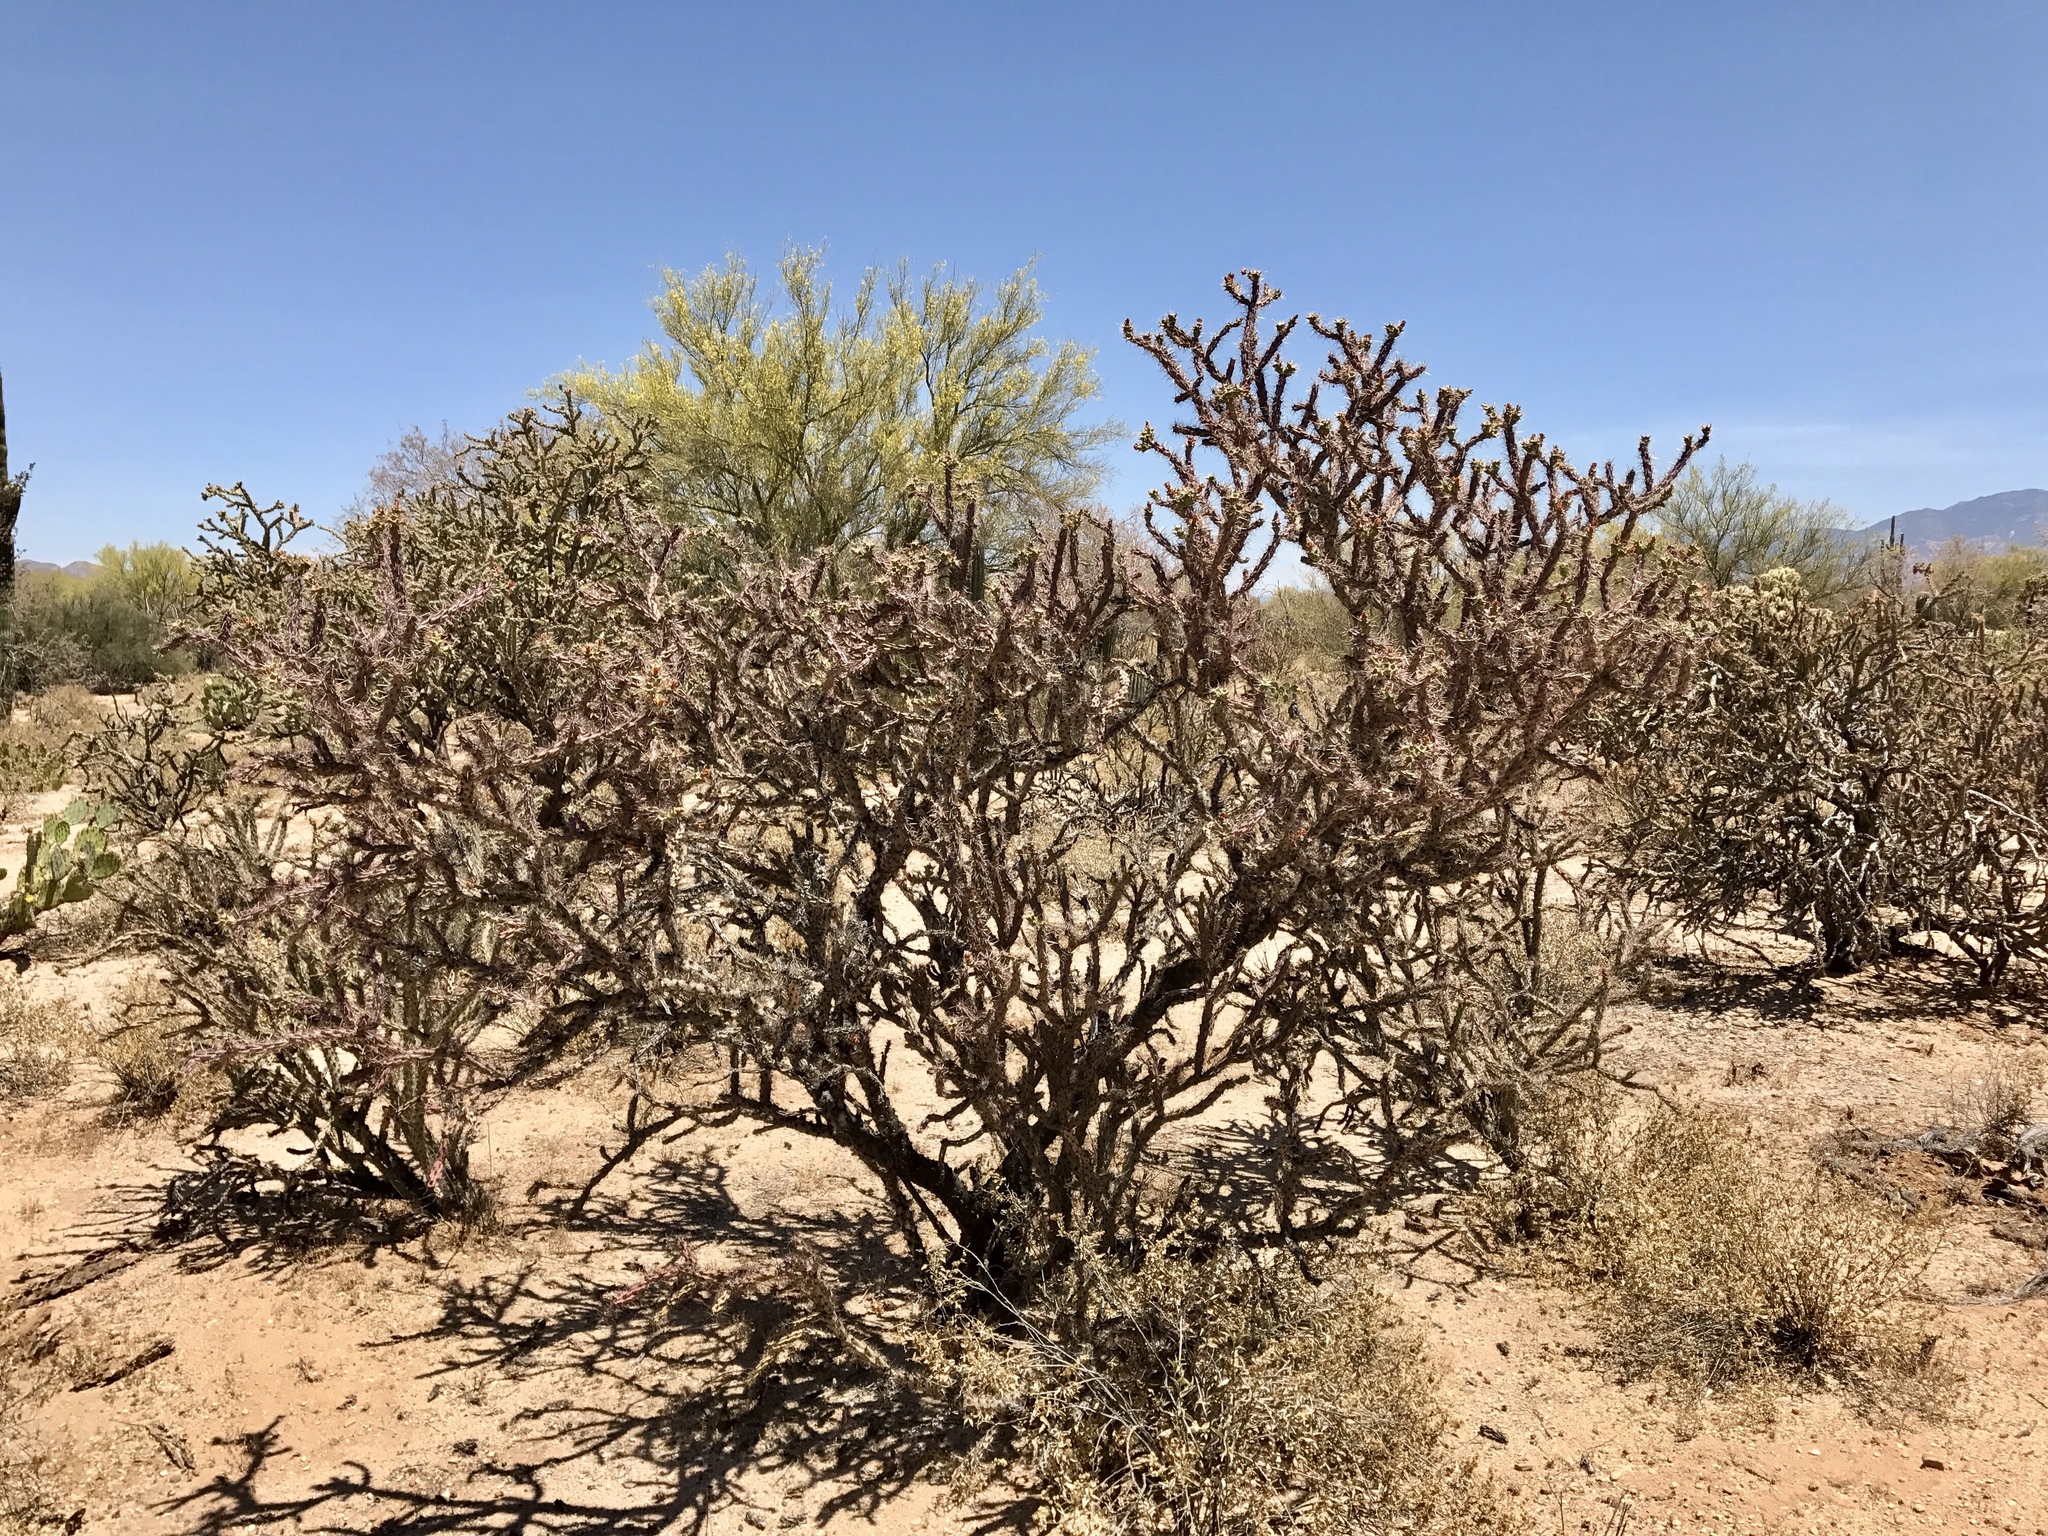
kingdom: Plantae
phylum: Tracheophyta
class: Magnoliopsida
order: Caryophyllales
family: Cactaceae
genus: Cylindropuntia
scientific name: Cylindropuntia thurberi
